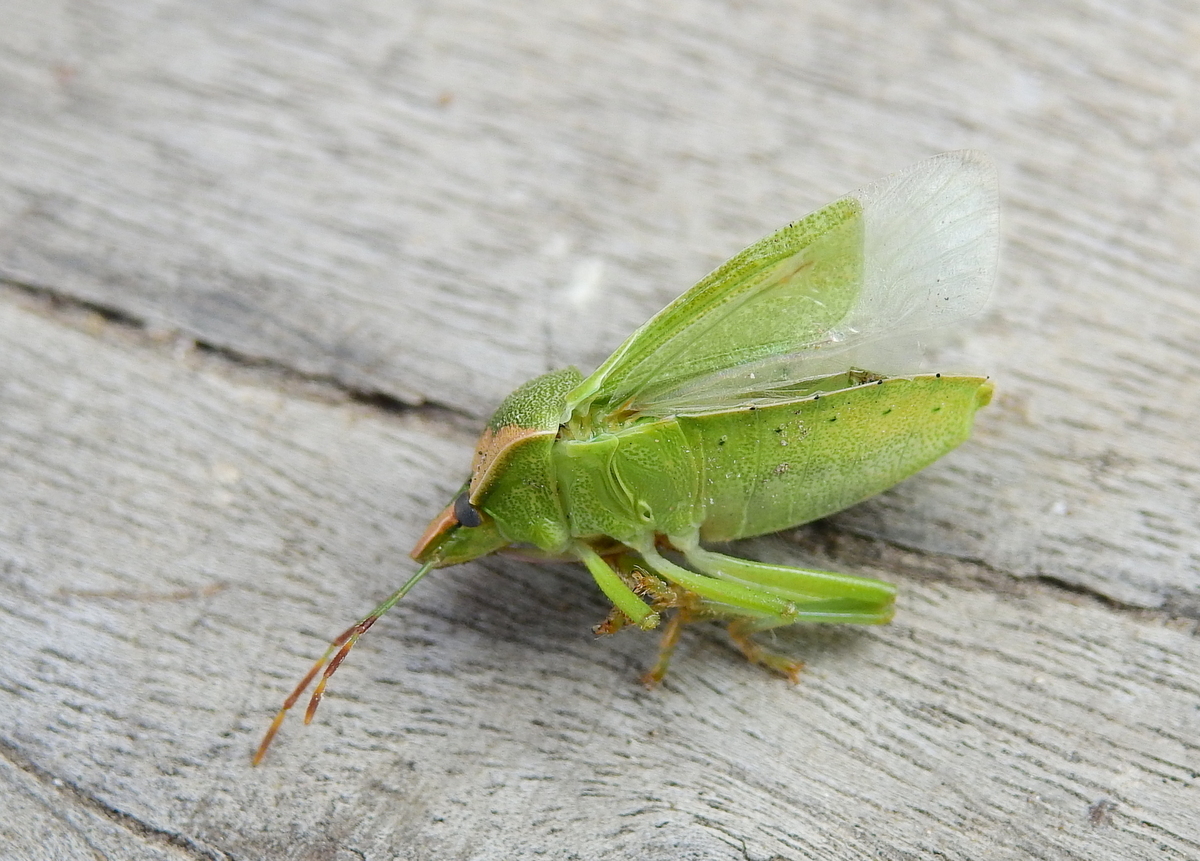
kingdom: Animalia
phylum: Arthropoda
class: Insecta
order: Hemiptera
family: Pentatomidae
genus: Nezara
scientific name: Nezara viridula
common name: Southern green stink bug
